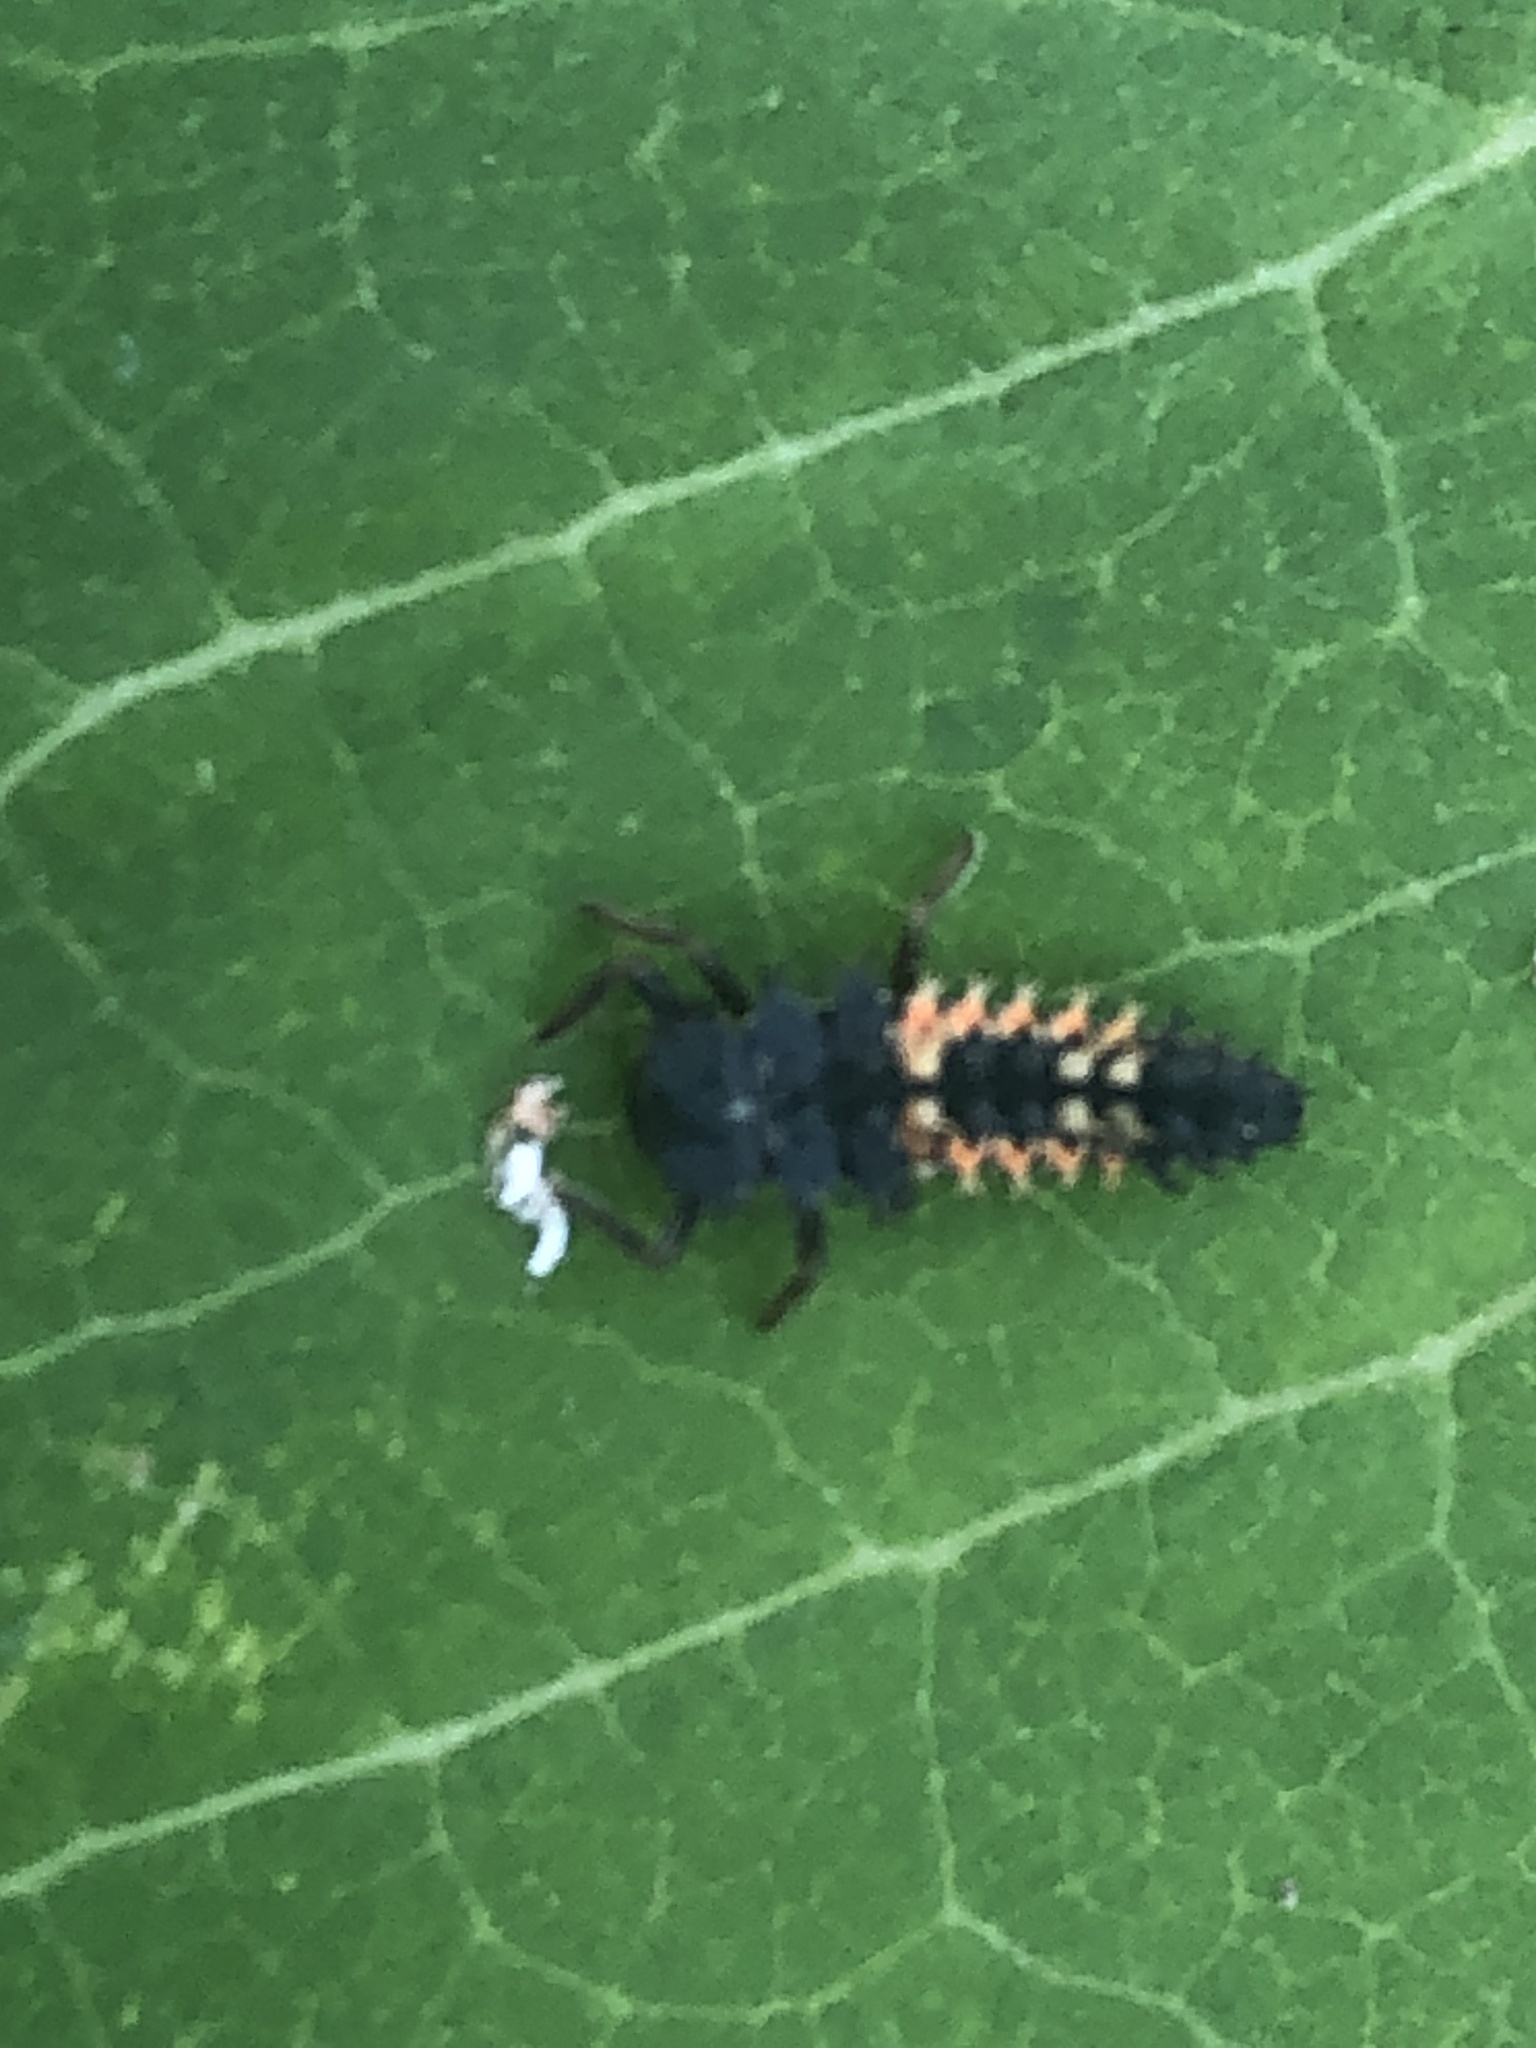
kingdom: Animalia
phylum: Arthropoda
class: Insecta
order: Coleoptera
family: Coccinellidae
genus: Harmonia
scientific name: Harmonia axyridis
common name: Harlequin ladybird
